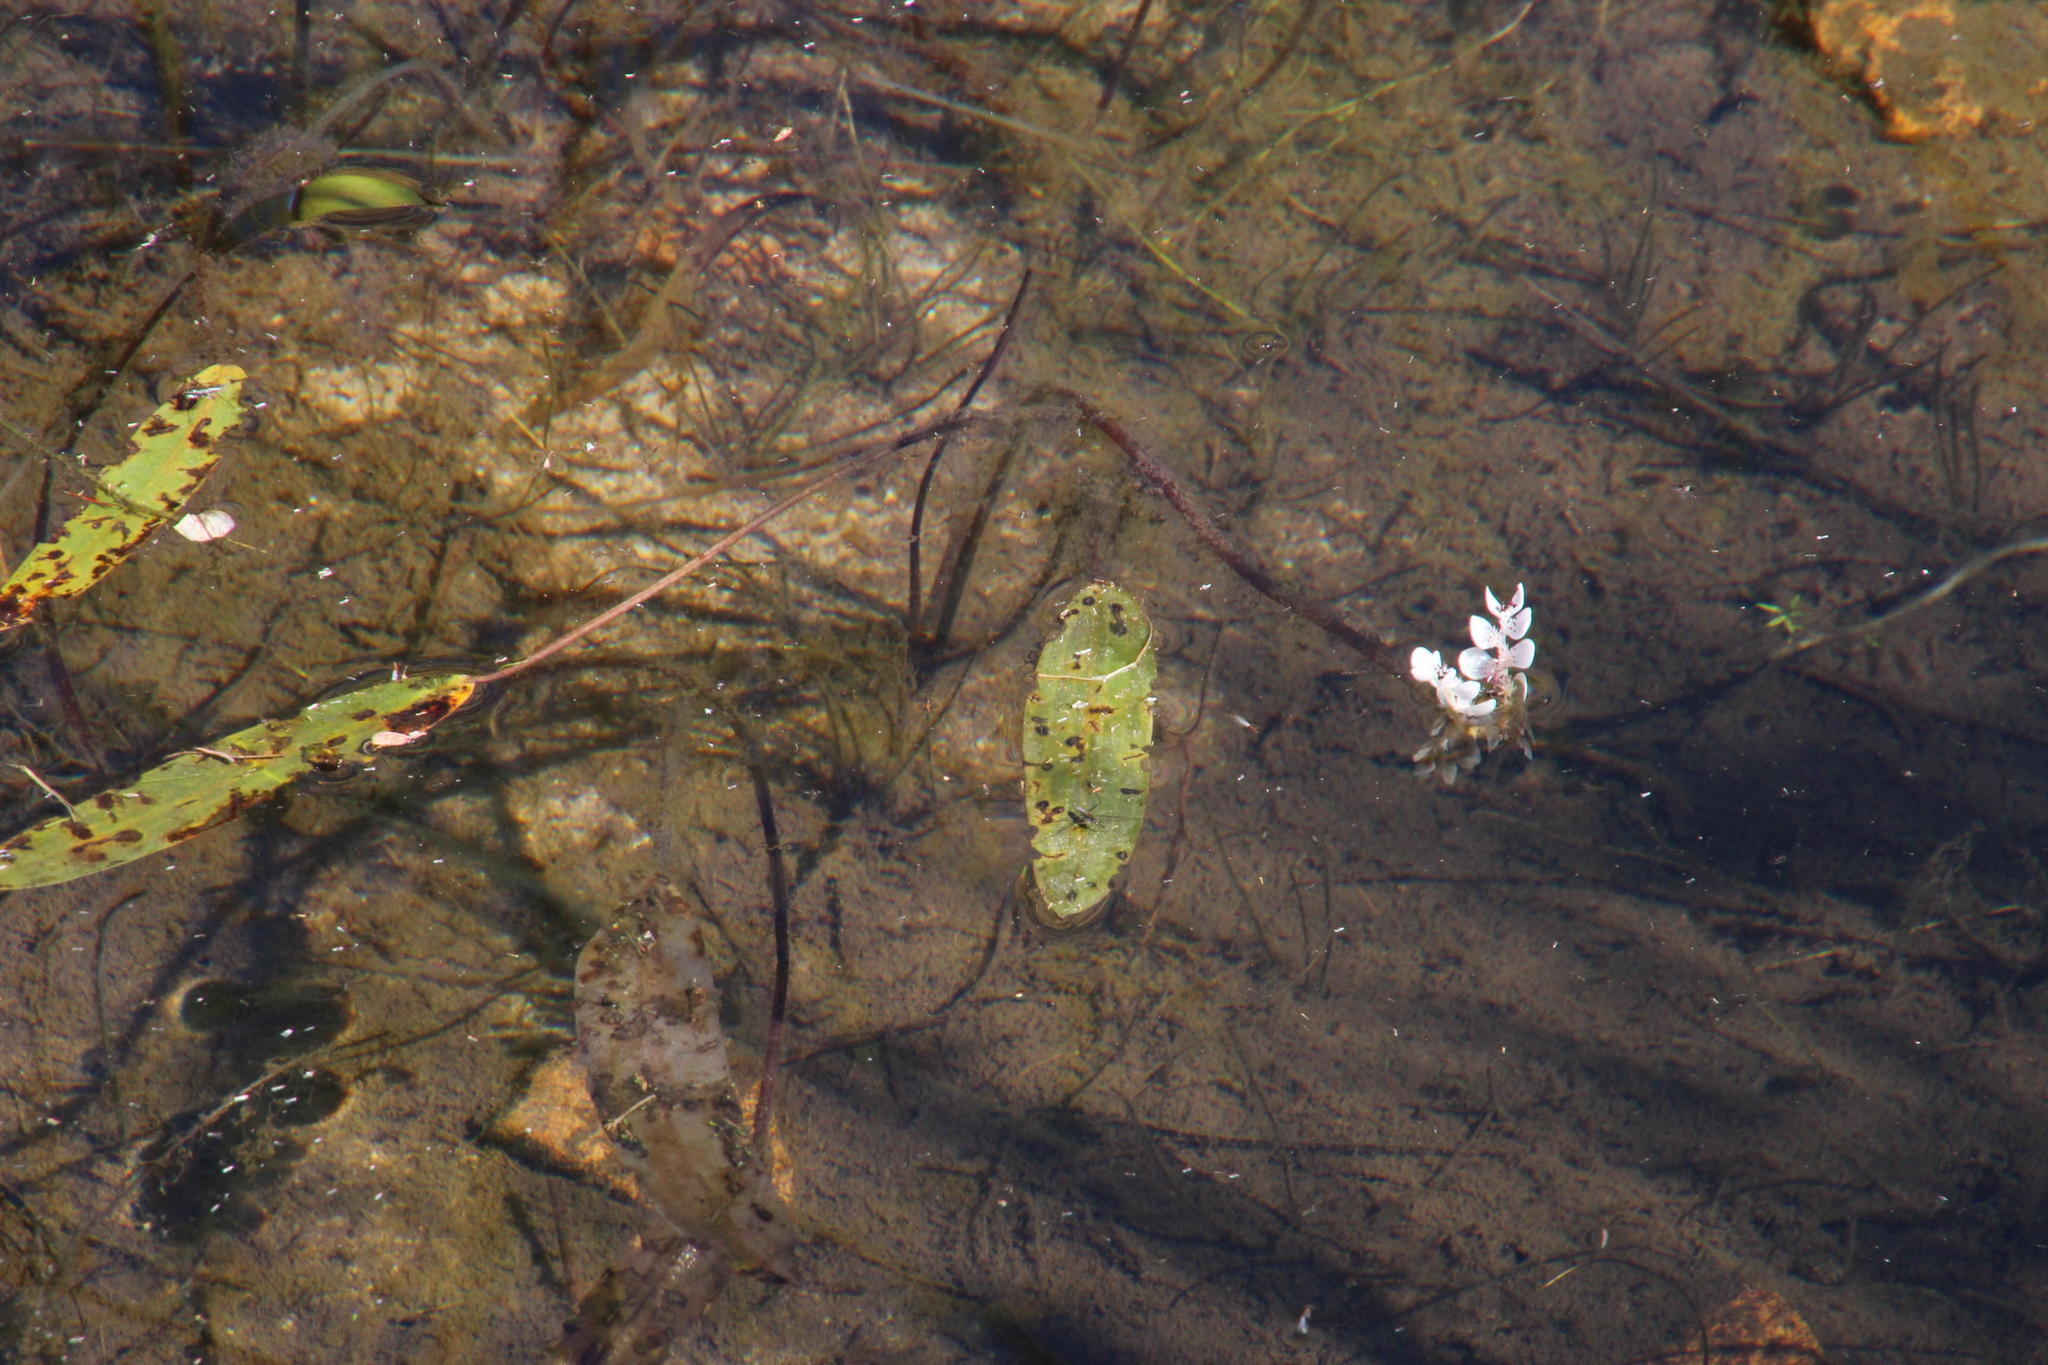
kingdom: Plantae
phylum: Tracheophyta
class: Liliopsida
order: Alismatales
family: Aponogetonaceae
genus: Aponogeton
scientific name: Aponogeton distachyos
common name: Cape-pondweed
